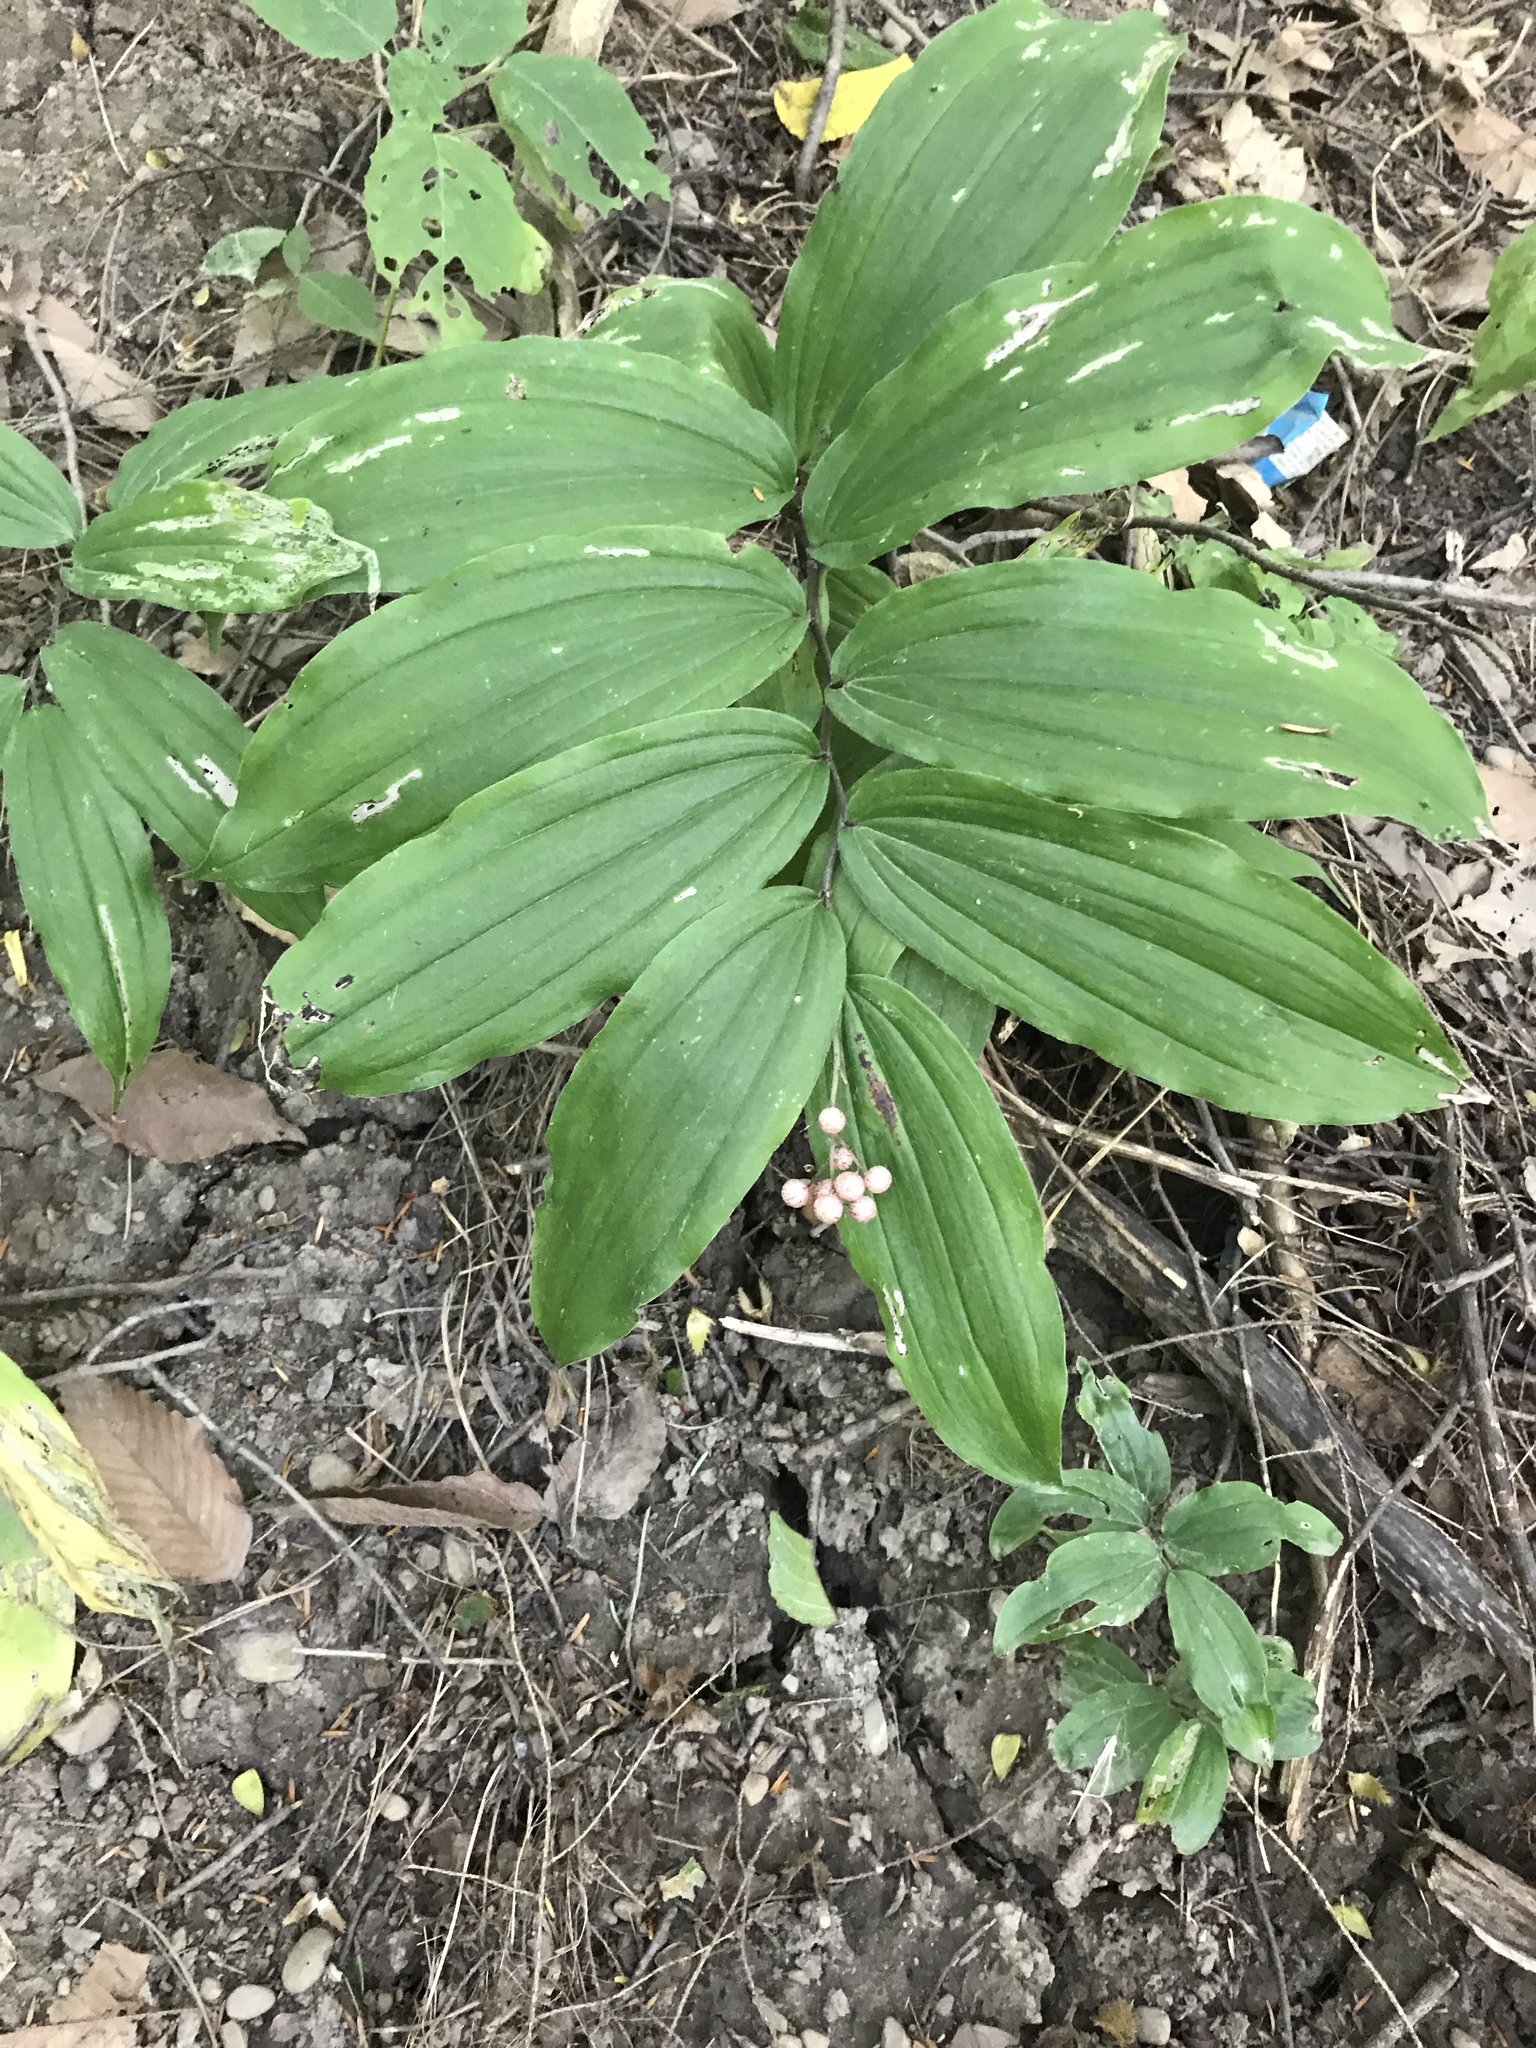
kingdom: Plantae
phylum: Tracheophyta
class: Liliopsida
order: Asparagales
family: Asparagaceae
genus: Maianthemum
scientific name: Maianthemum racemosum
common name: False spikenard
